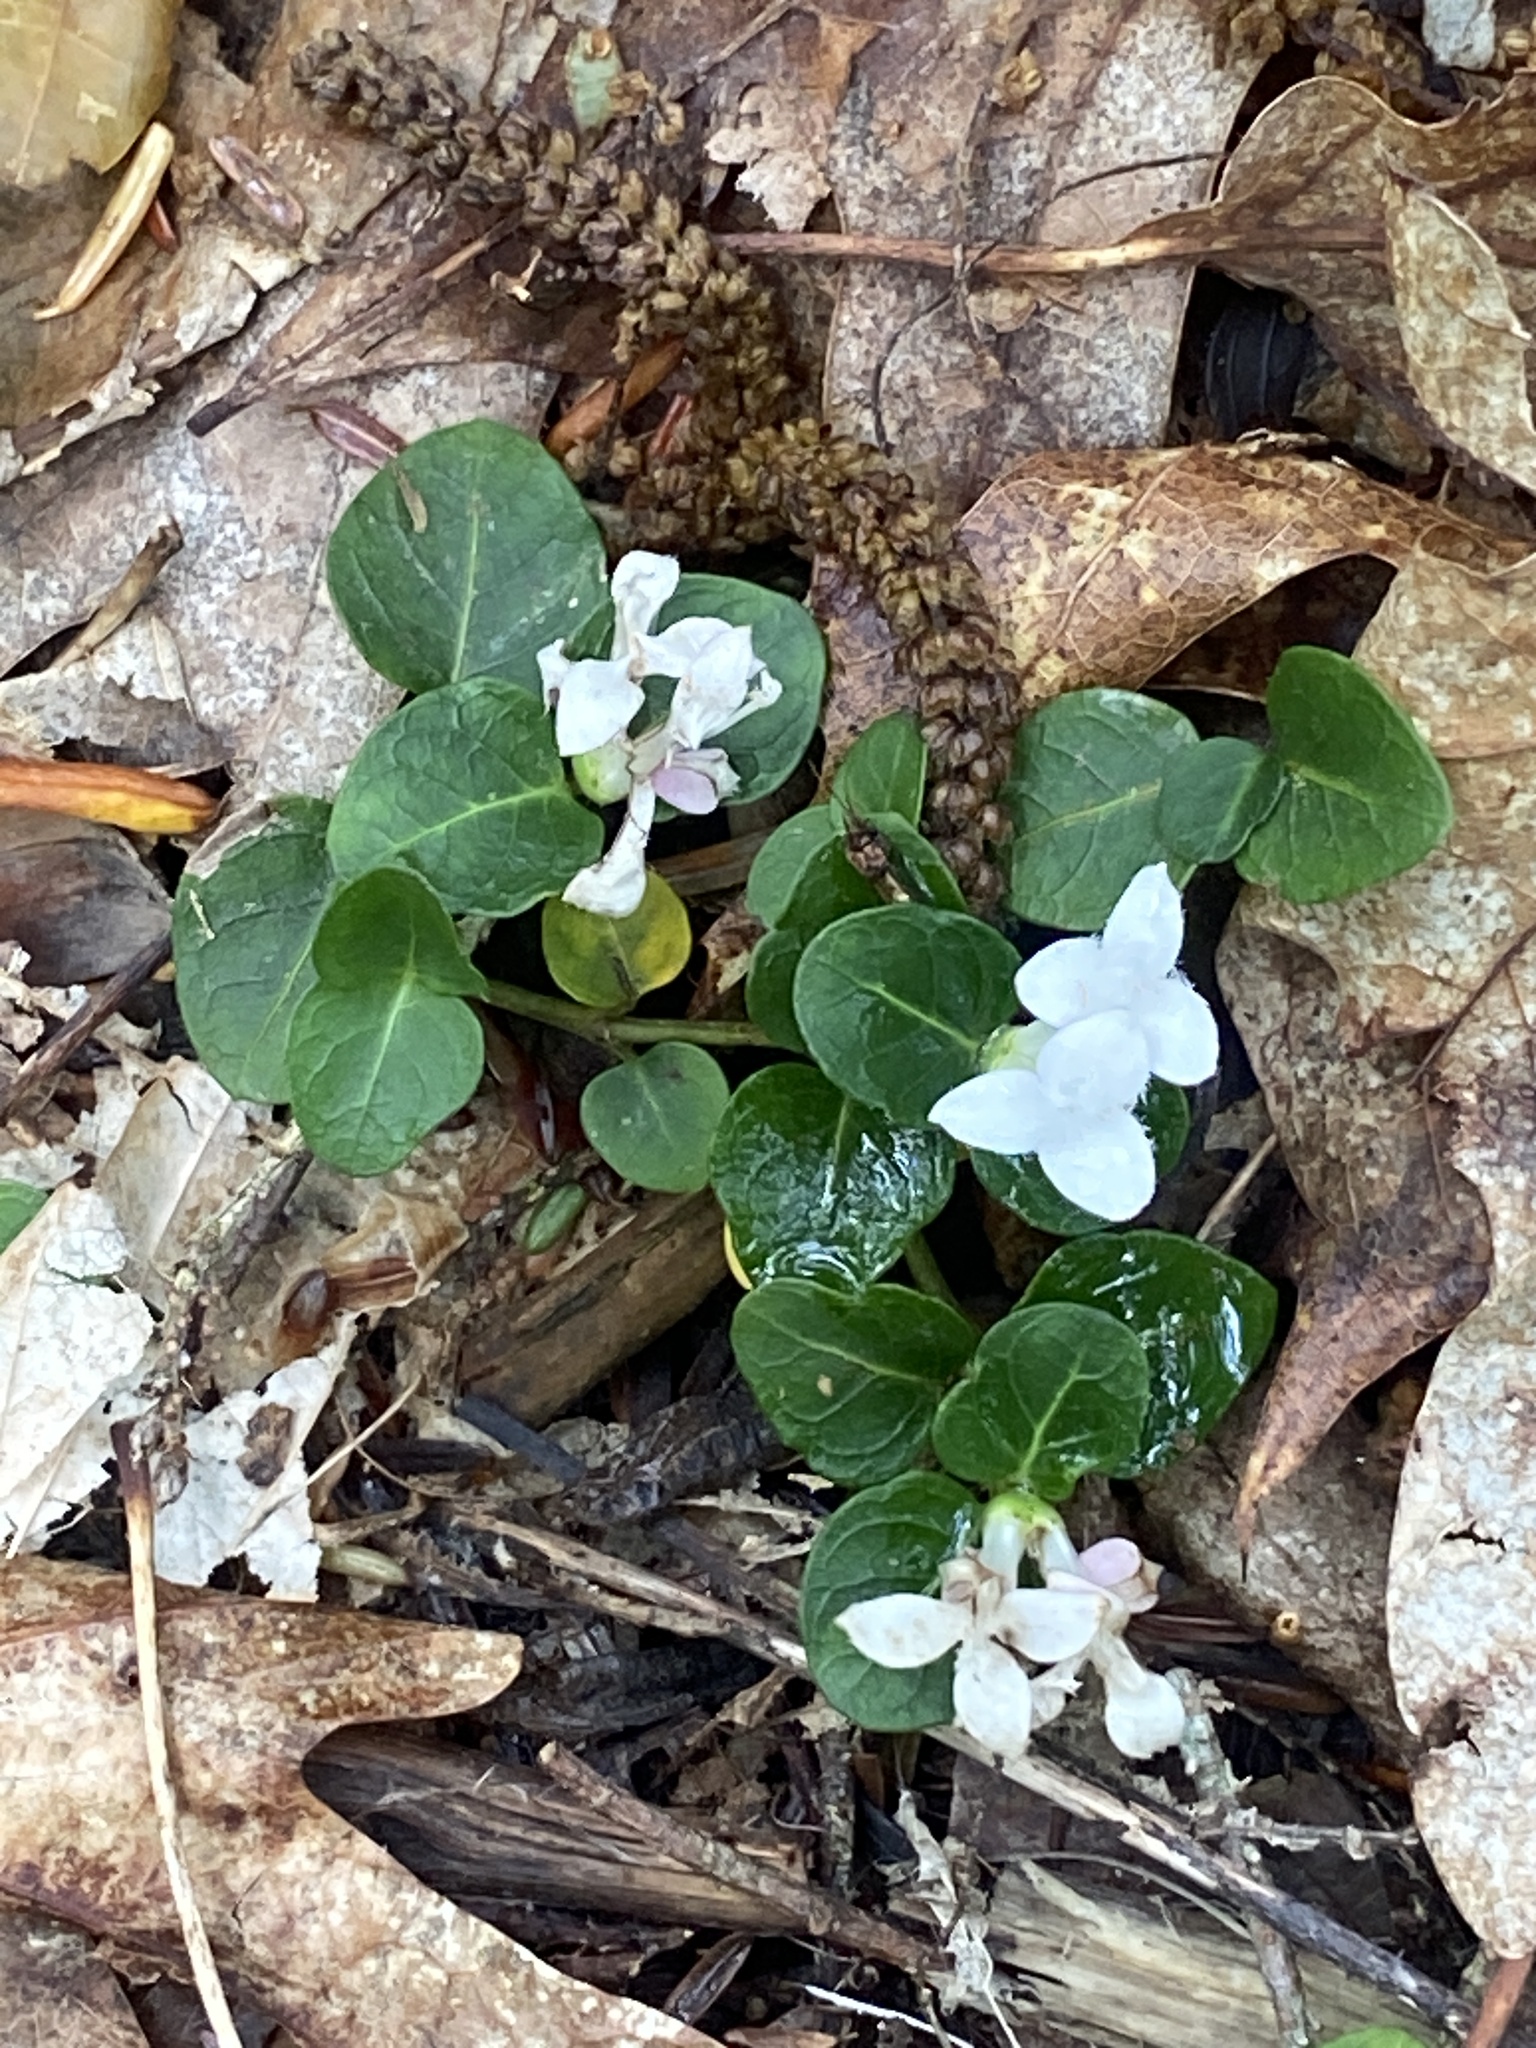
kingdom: Plantae
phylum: Tracheophyta
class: Magnoliopsida
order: Gentianales
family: Rubiaceae
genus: Mitchella
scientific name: Mitchella repens
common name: Partridge-berry
